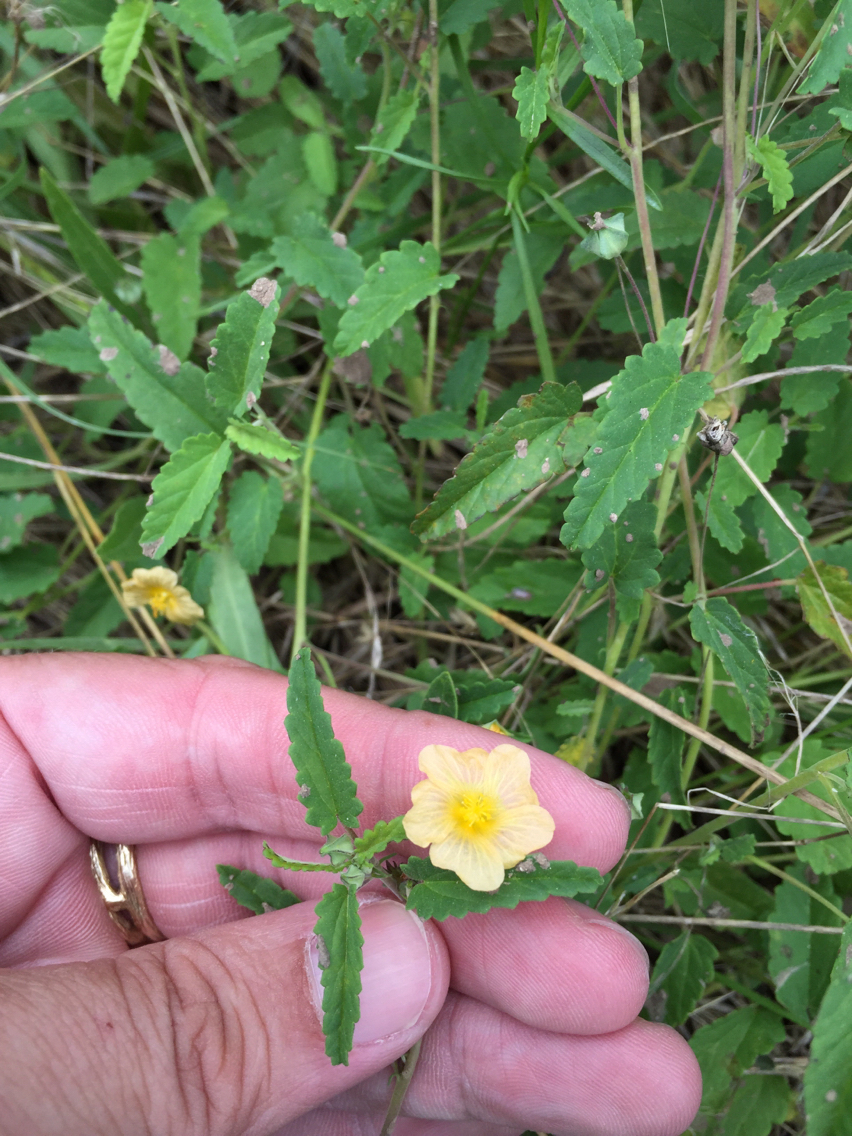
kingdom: Plantae
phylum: Tracheophyta
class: Magnoliopsida
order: Malvales
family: Malvaceae
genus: Sida
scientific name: Sida abutilifolia
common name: Spreading fanpetals
